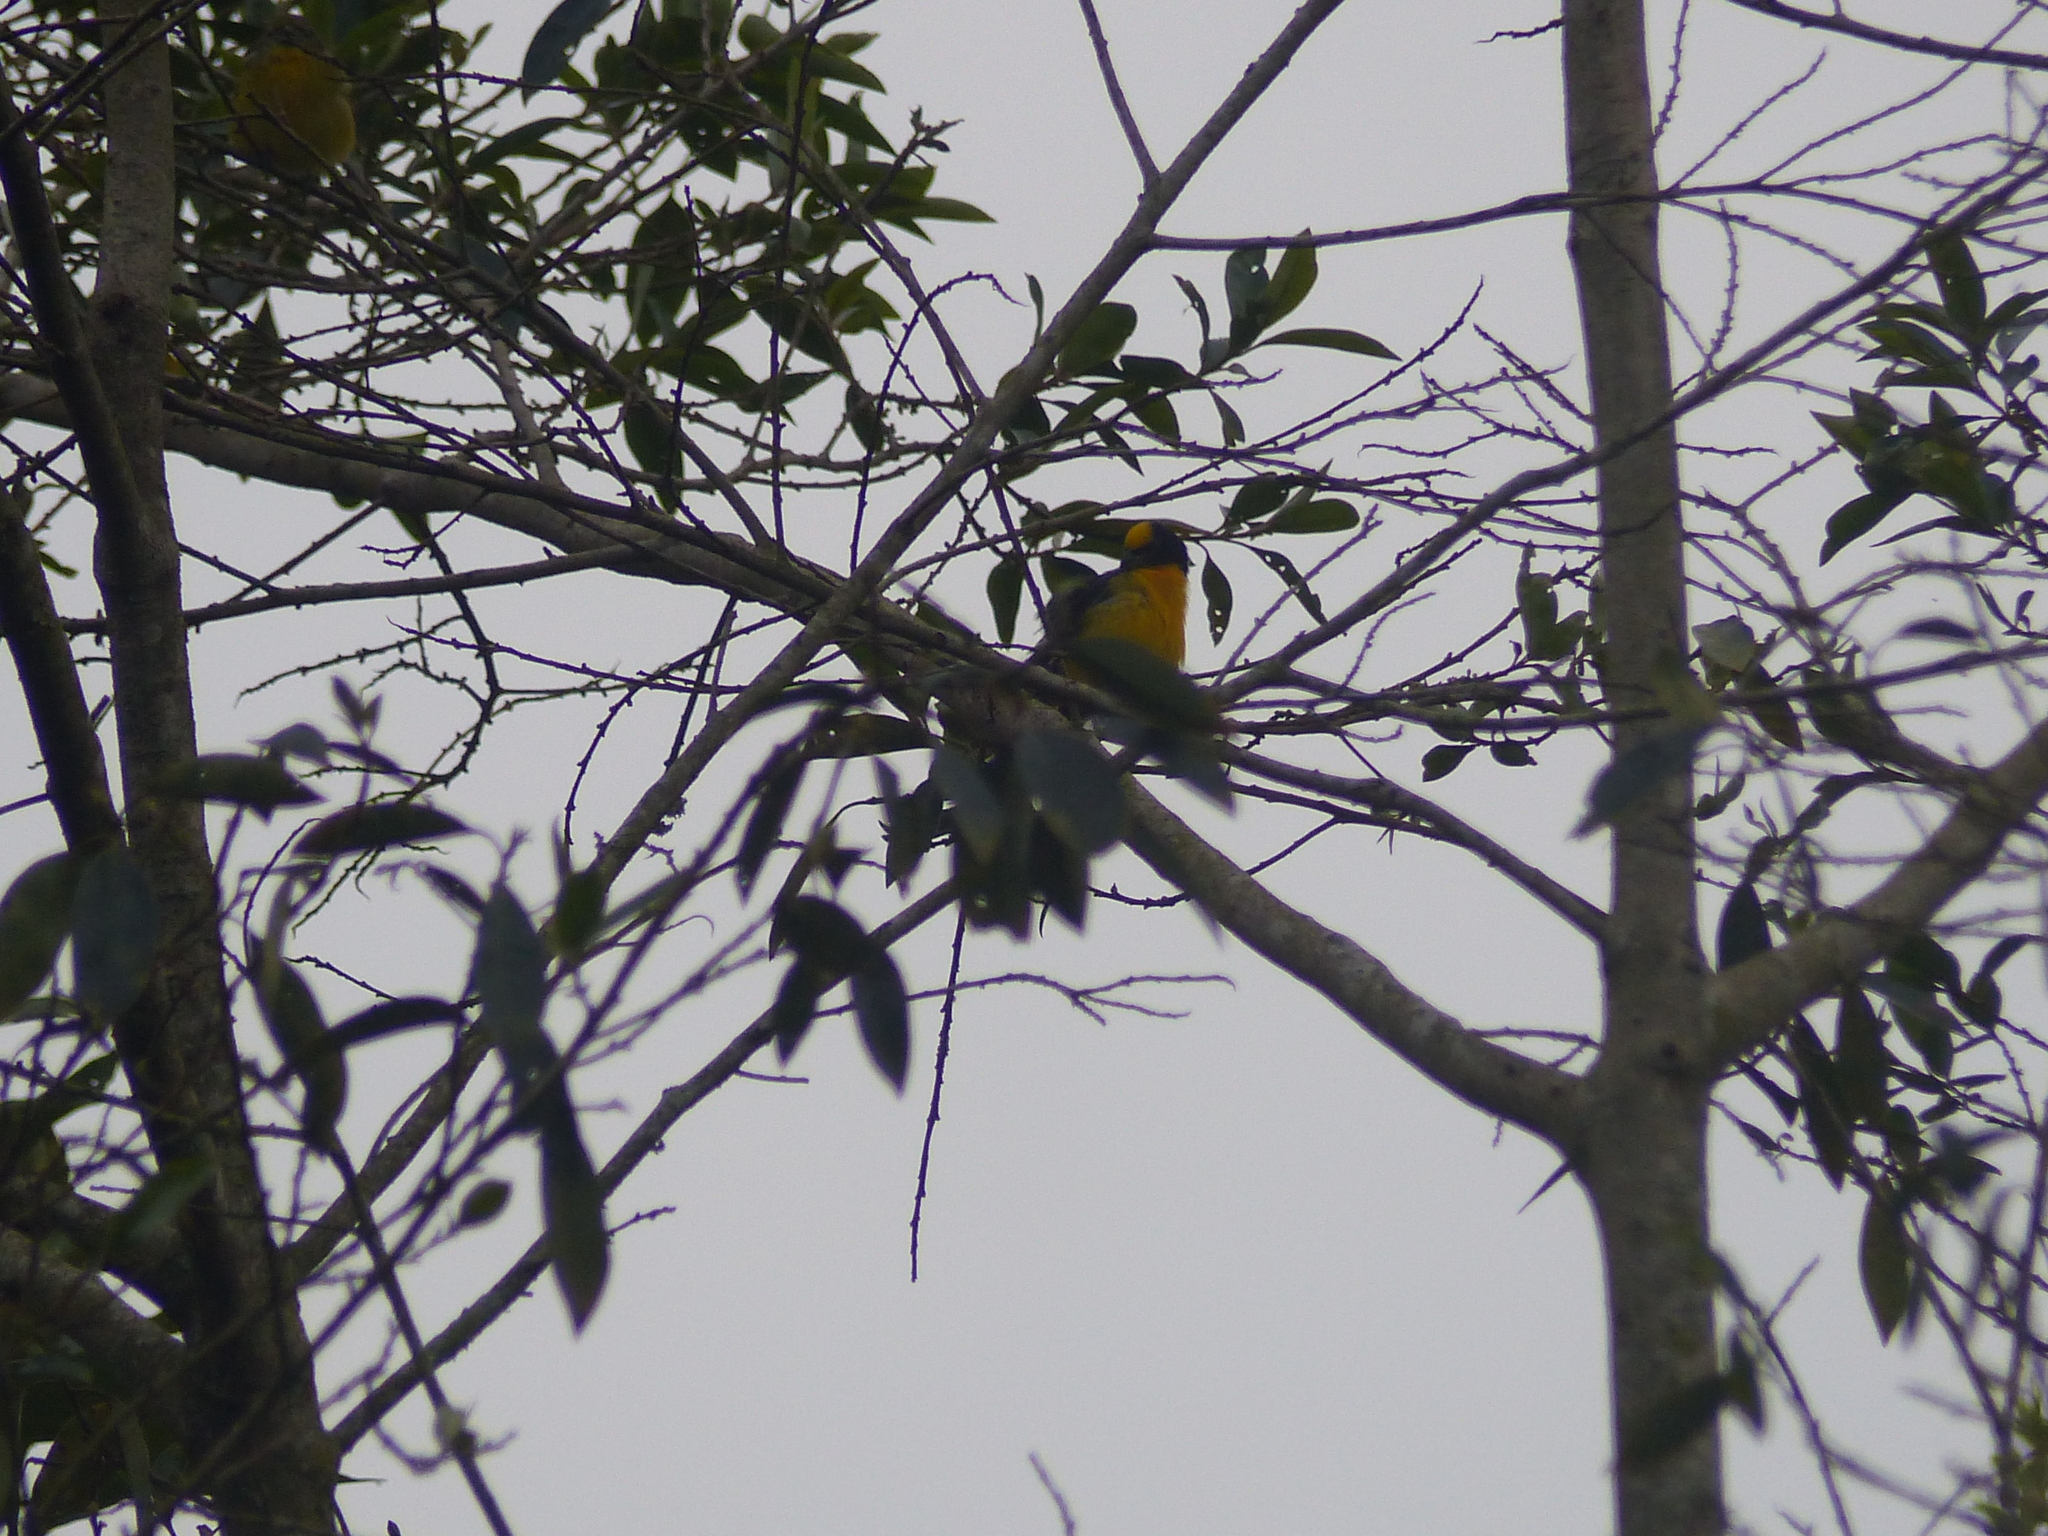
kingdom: Animalia
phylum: Chordata
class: Aves
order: Passeriformes
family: Fringillidae
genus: Euphonia
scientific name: Euphonia laniirostris
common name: Thick-billed euphonia
